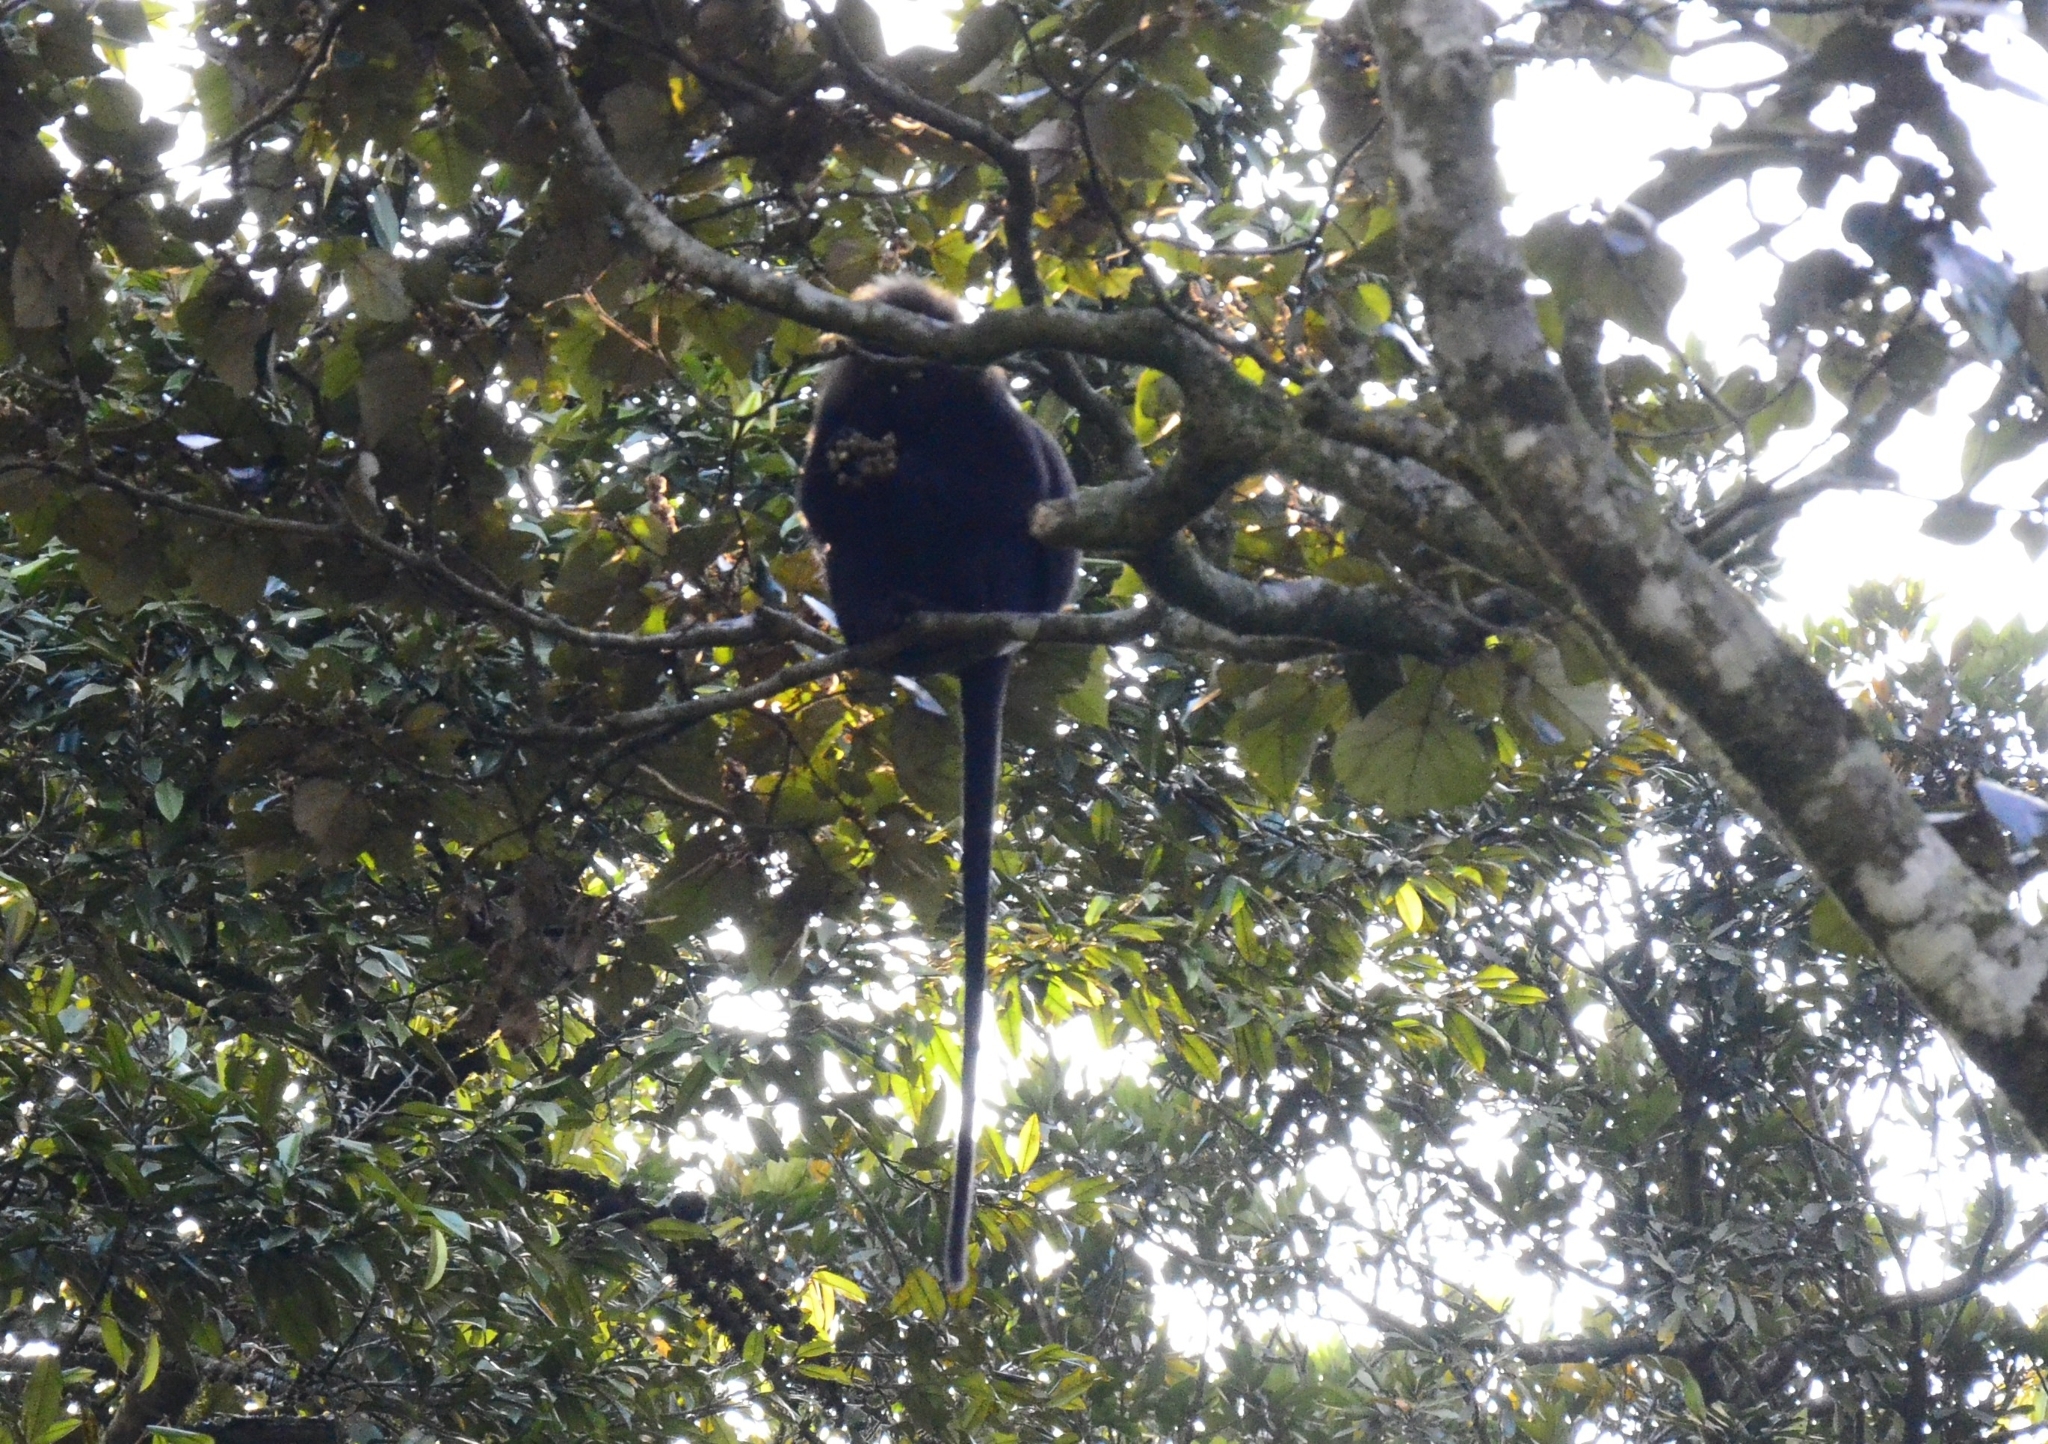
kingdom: Animalia
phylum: Chordata
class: Mammalia
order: Primates
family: Cercopithecidae
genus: Semnopithecus
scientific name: Semnopithecus johnii
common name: Nilgiri langur
